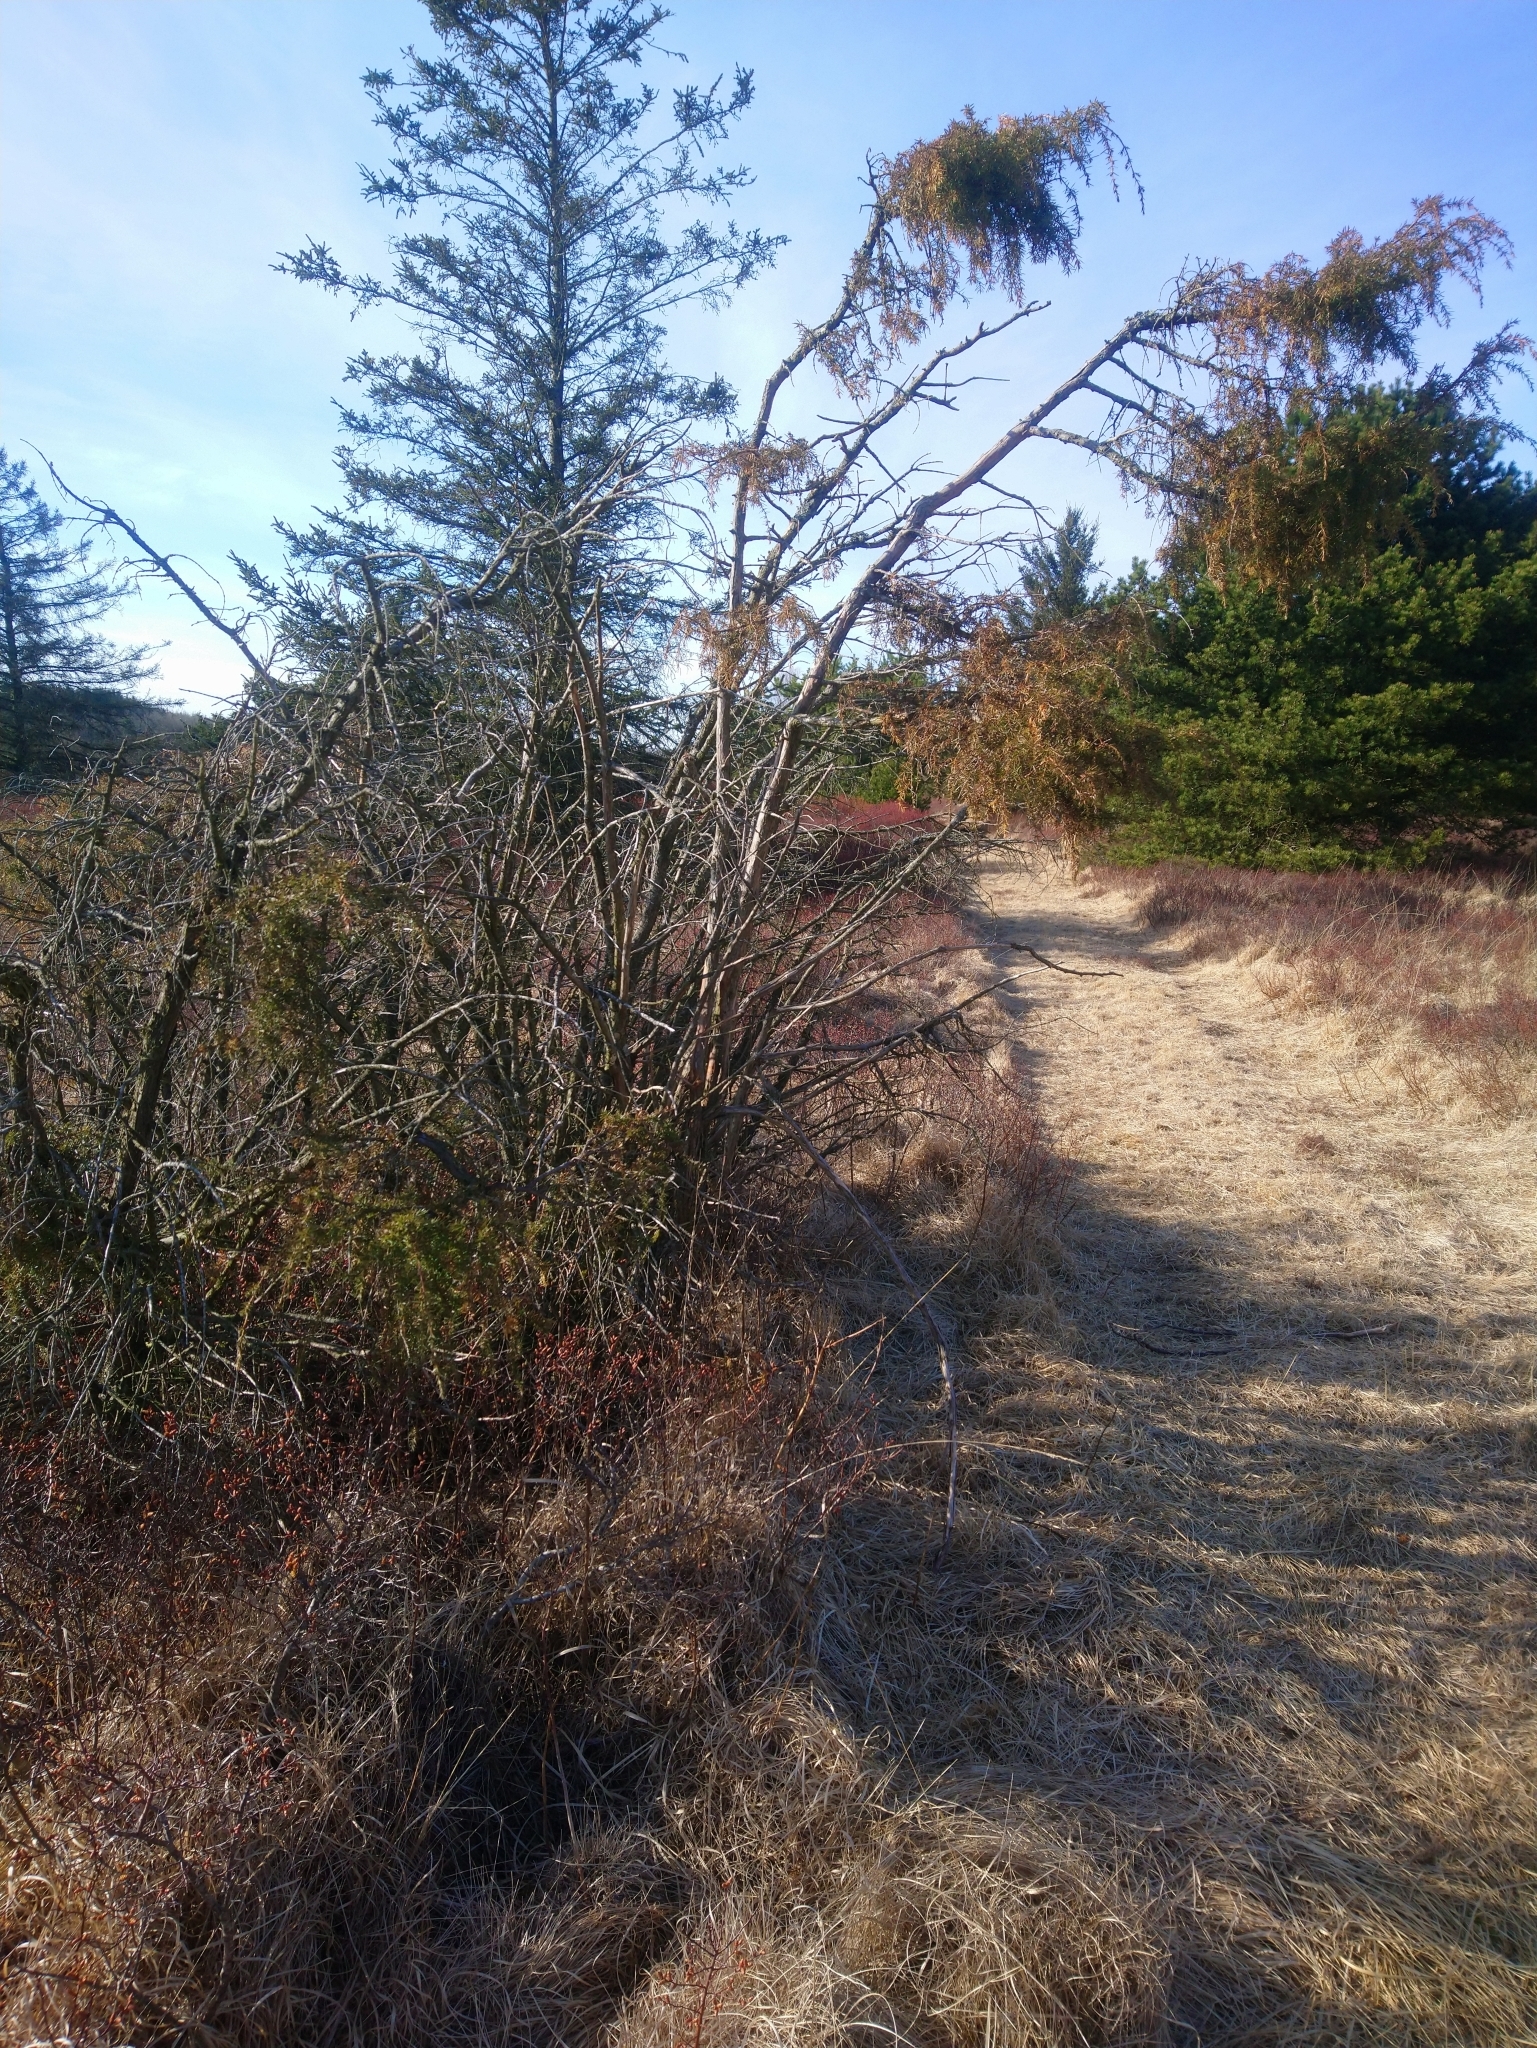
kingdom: Plantae
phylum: Tracheophyta
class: Pinopsida
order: Pinales
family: Cupressaceae
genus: Juniperus
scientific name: Juniperus communis
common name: Common juniper
